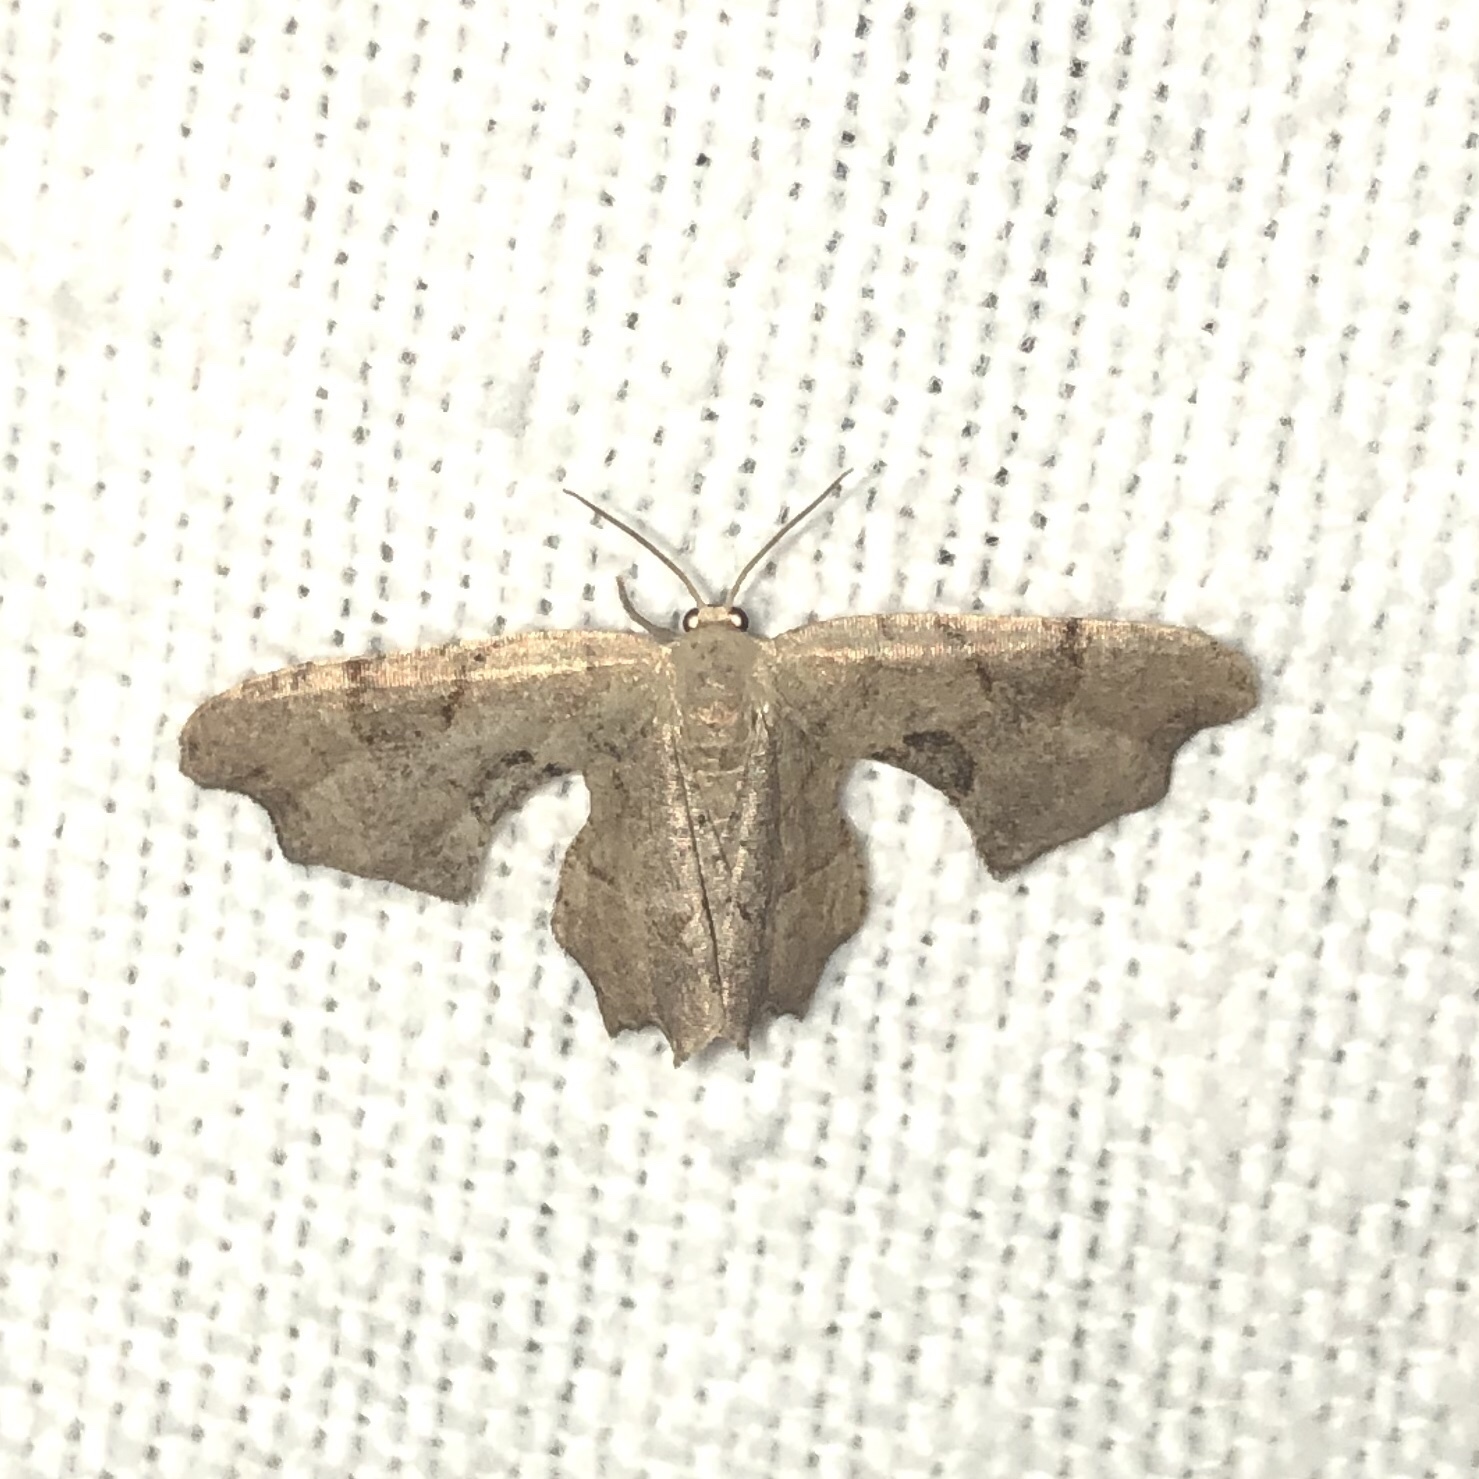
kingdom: Animalia
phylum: Arthropoda
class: Insecta
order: Lepidoptera
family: Uraniidae
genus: Epiplema
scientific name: Epiplema Calledapteryx dryopterata
